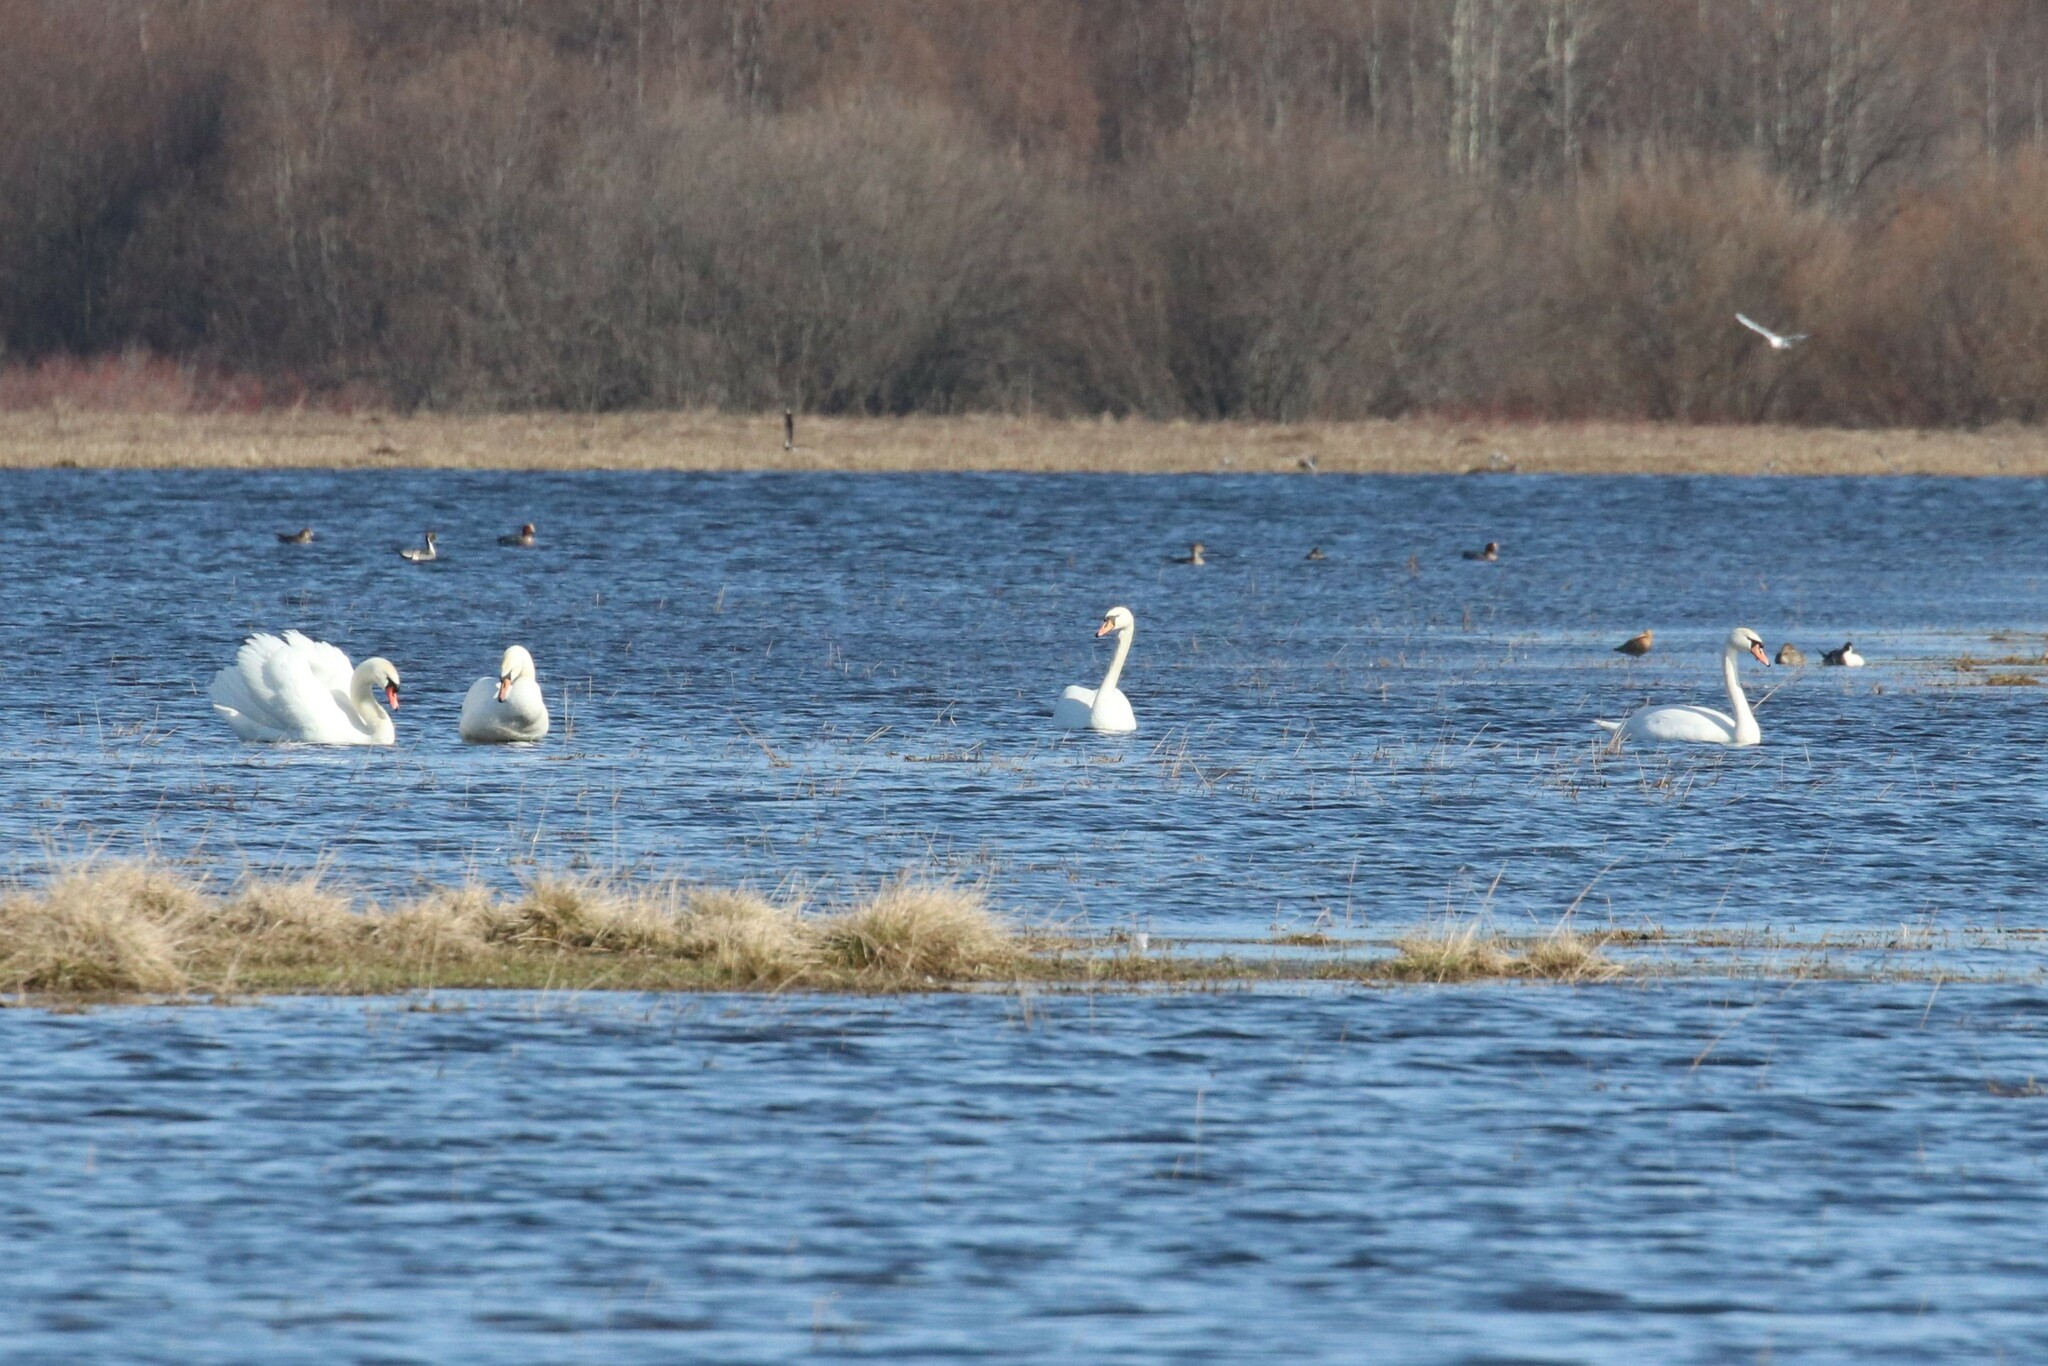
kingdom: Animalia
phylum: Chordata
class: Aves
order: Anseriformes
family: Anatidae
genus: Cygnus
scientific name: Cygnus olor
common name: Mute swan
